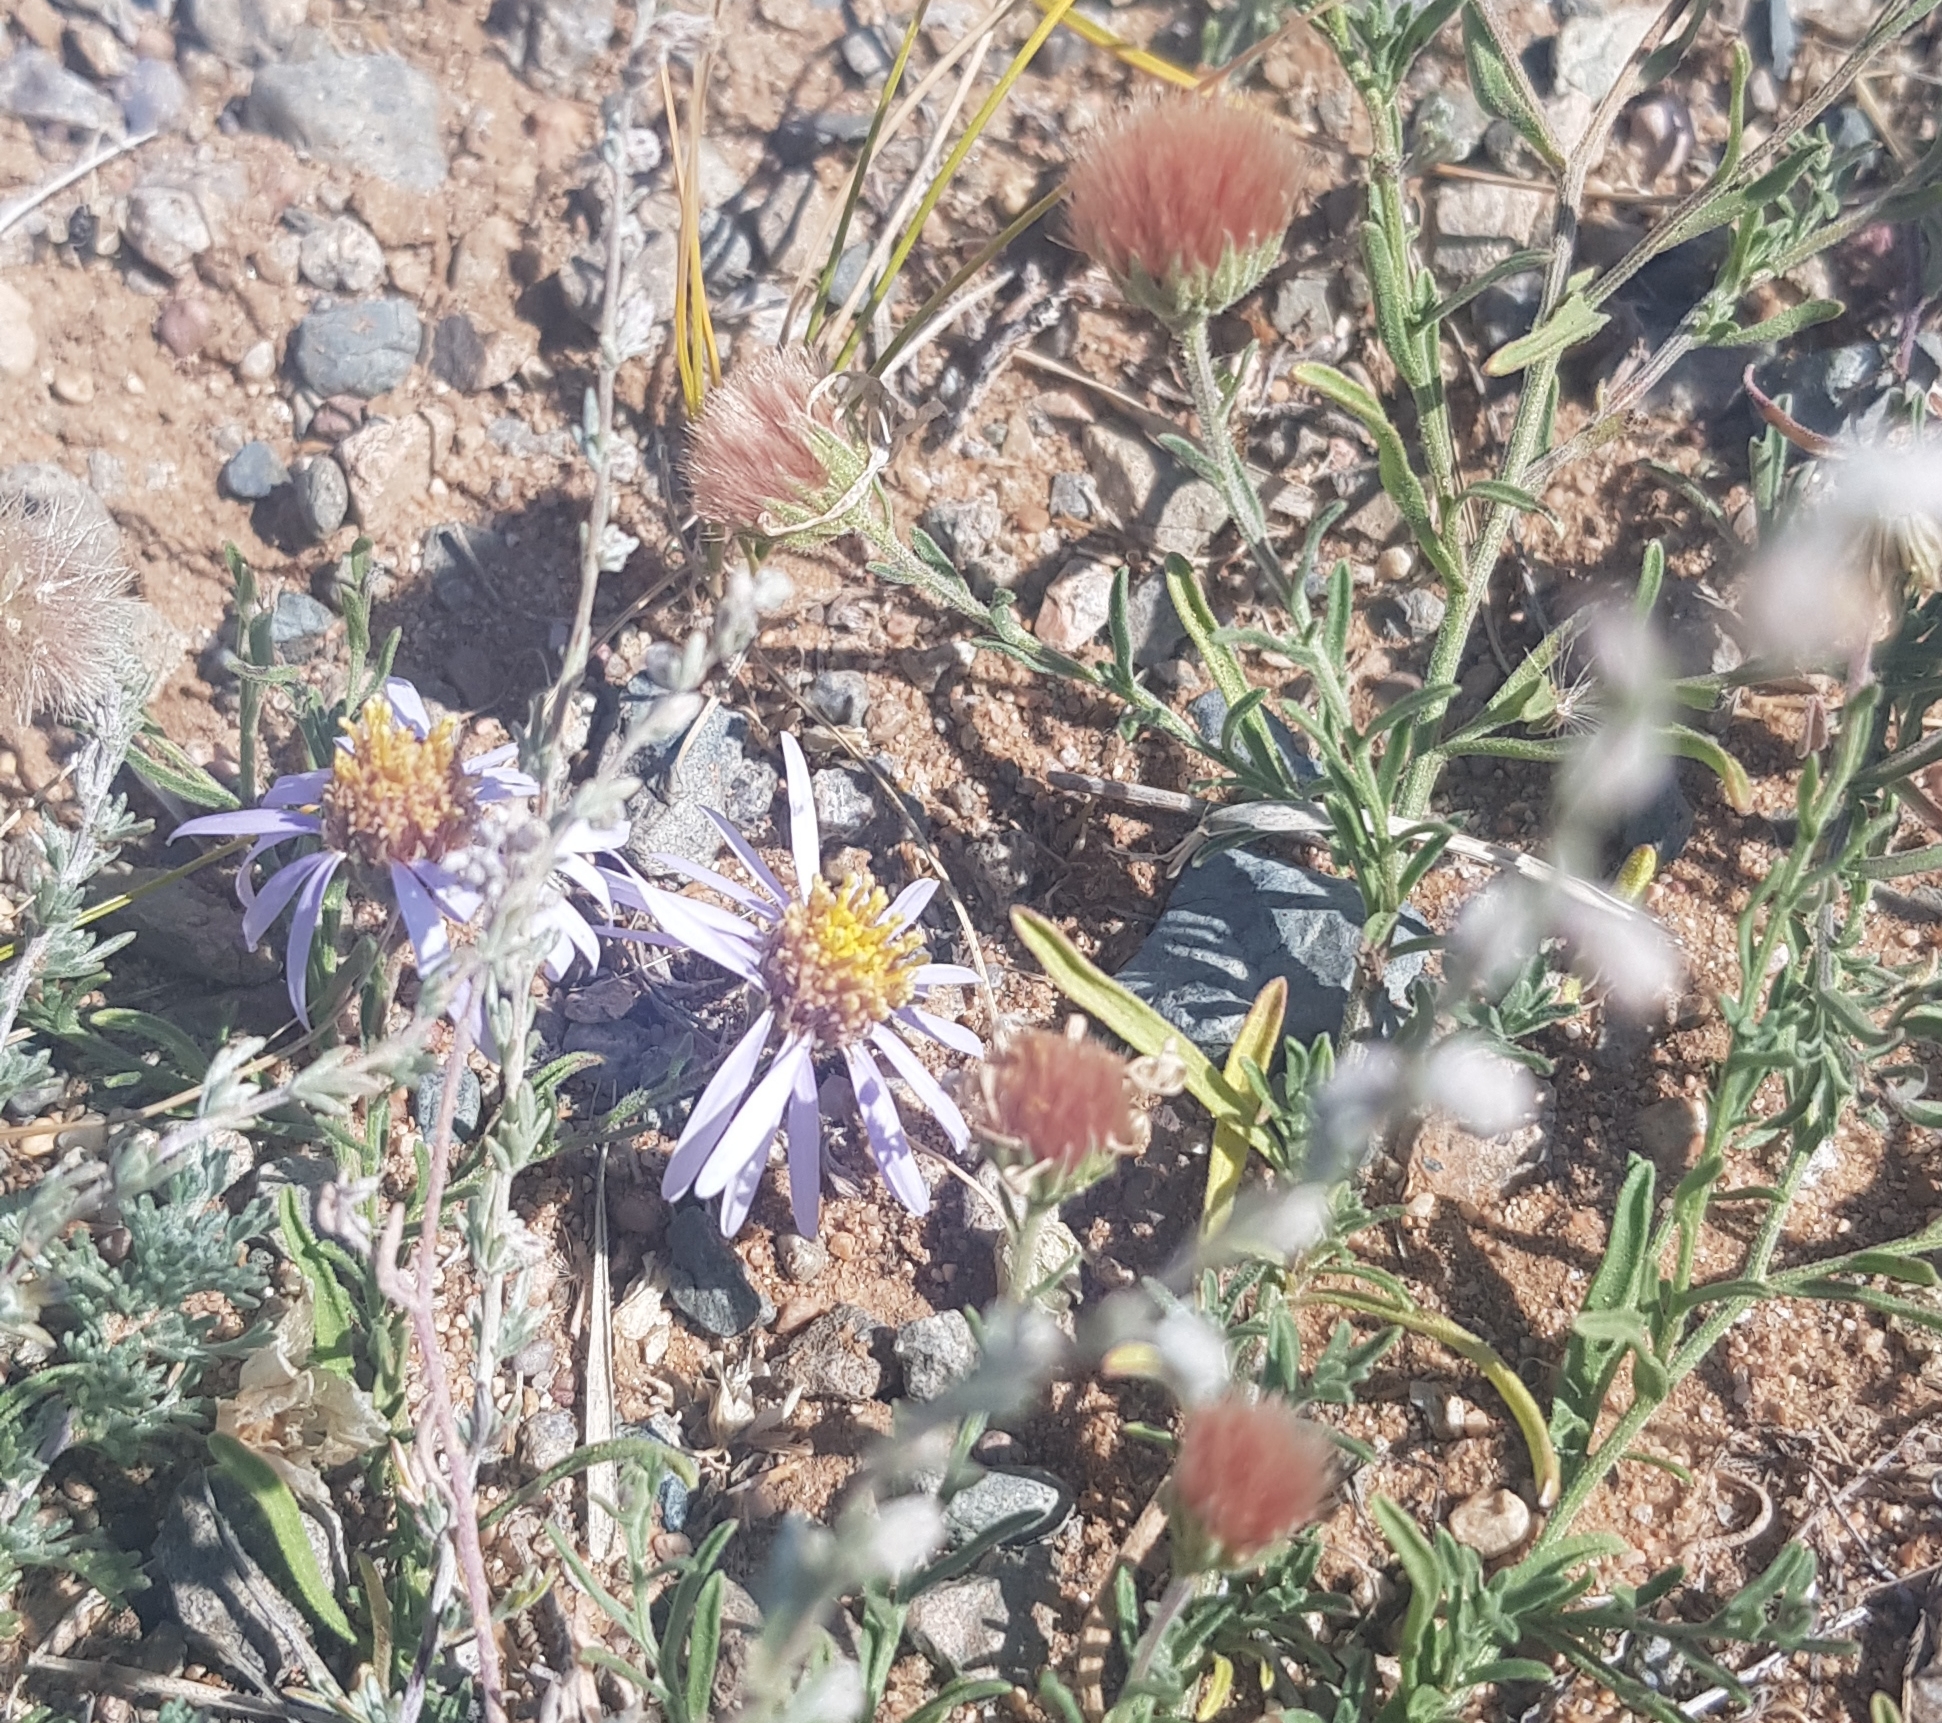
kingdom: Plantae
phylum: Tracheophyta
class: Magnoliopsida
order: Asterales
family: Asteraceae
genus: Heteropappus
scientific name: Heteropappus altaicus
